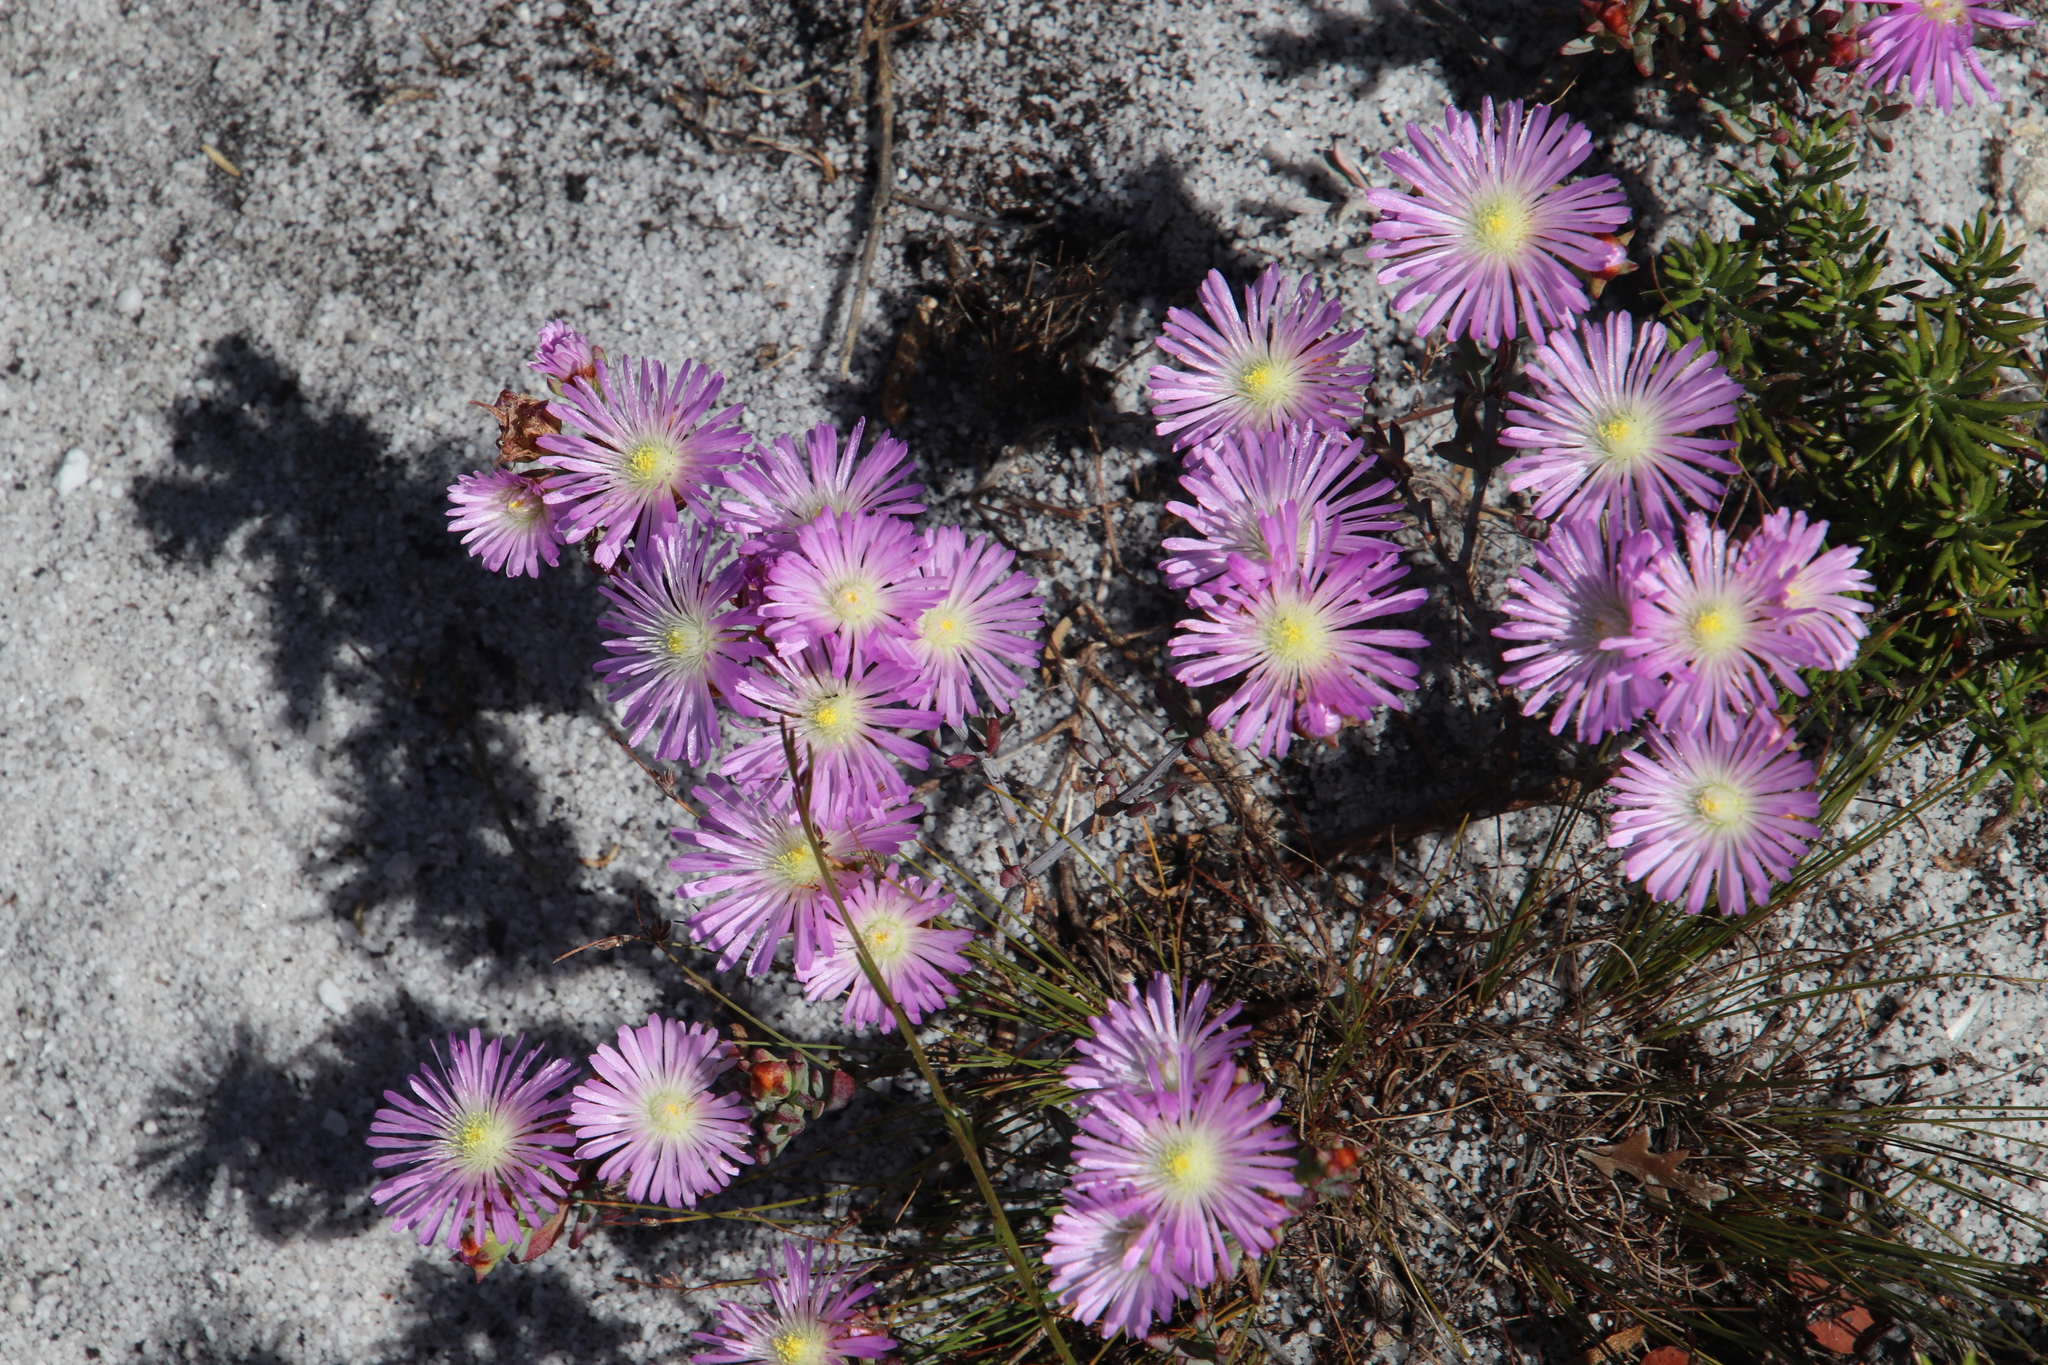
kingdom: Plantae
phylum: Tracheophyta
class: Magnoliopsida
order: Caryophyllales
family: Aizoaceae
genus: Lampranthus
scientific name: Lampranthus glomeratus
